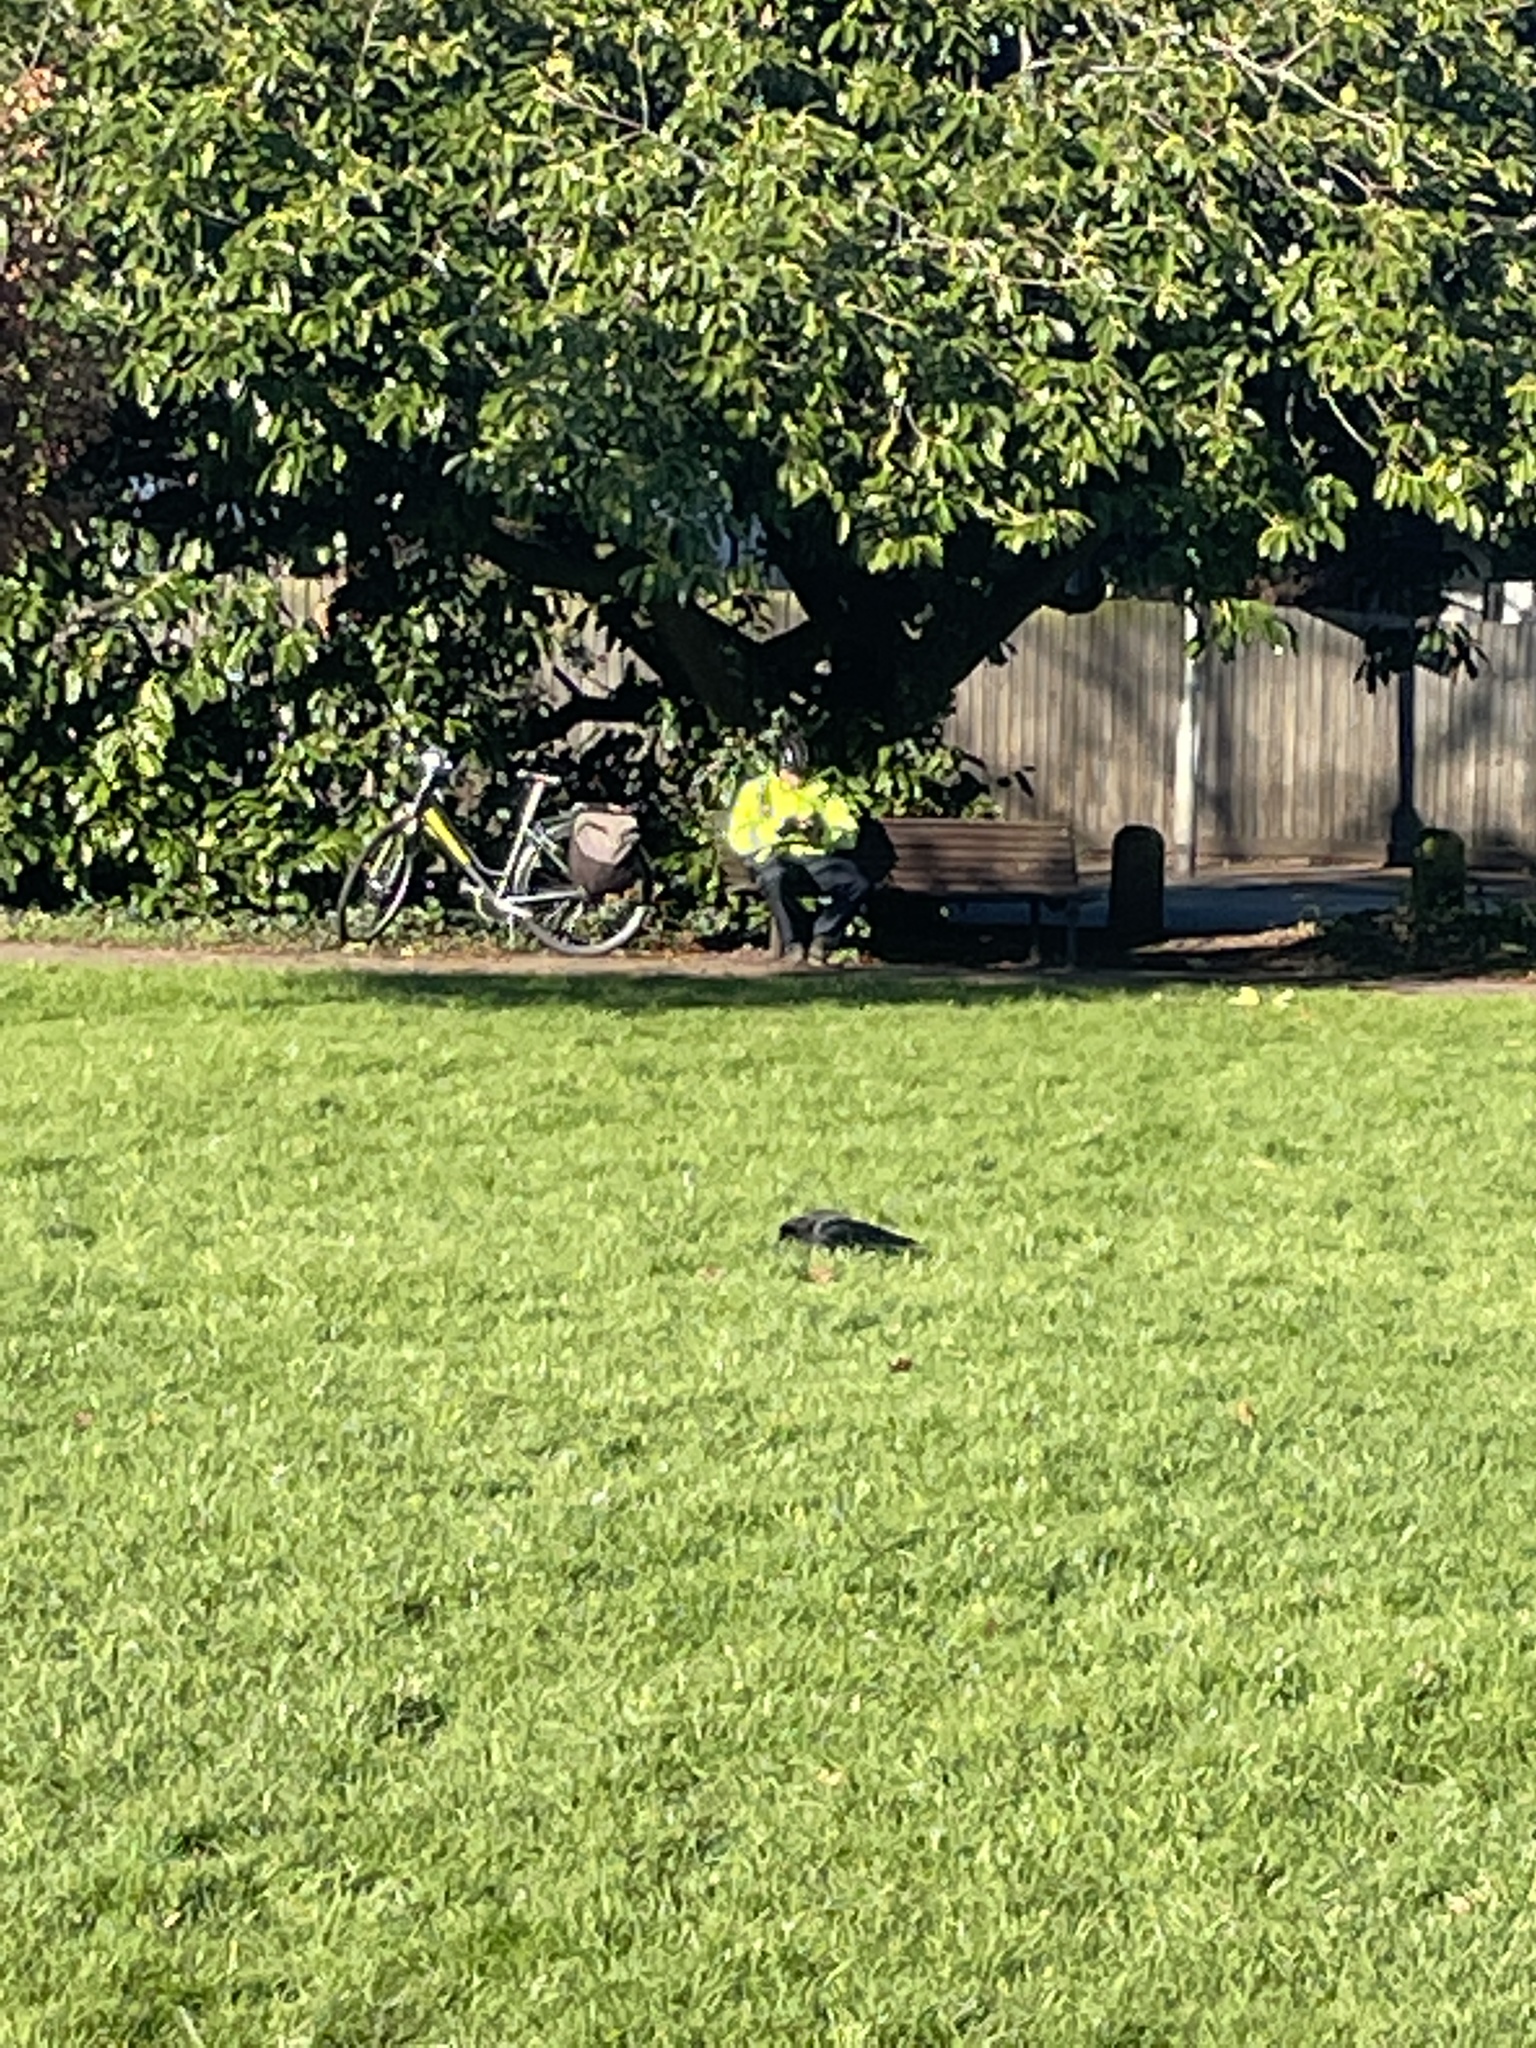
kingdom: Animalia
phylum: Chordata
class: Aves
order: Passeriformes
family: Corvidae
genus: Corvus
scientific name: Corvus corone
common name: Carrion crow
